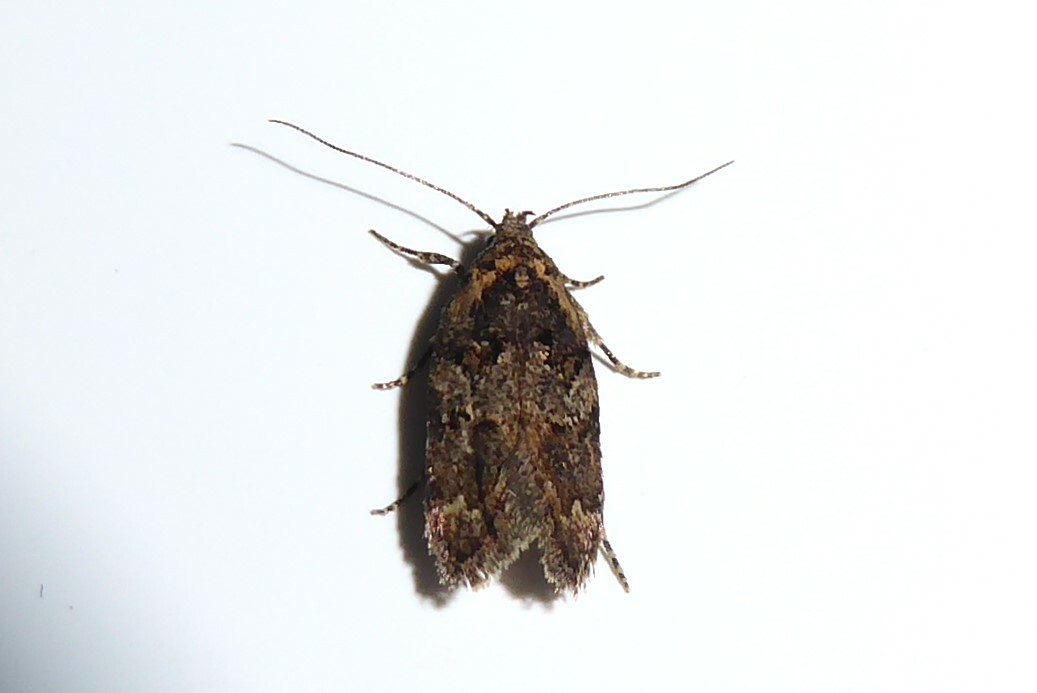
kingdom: Animalia
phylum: Arthropoda
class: Insecta
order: Lepidoptera
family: Oecophoridae
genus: Trachypepla
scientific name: Trachypepla anastrella
